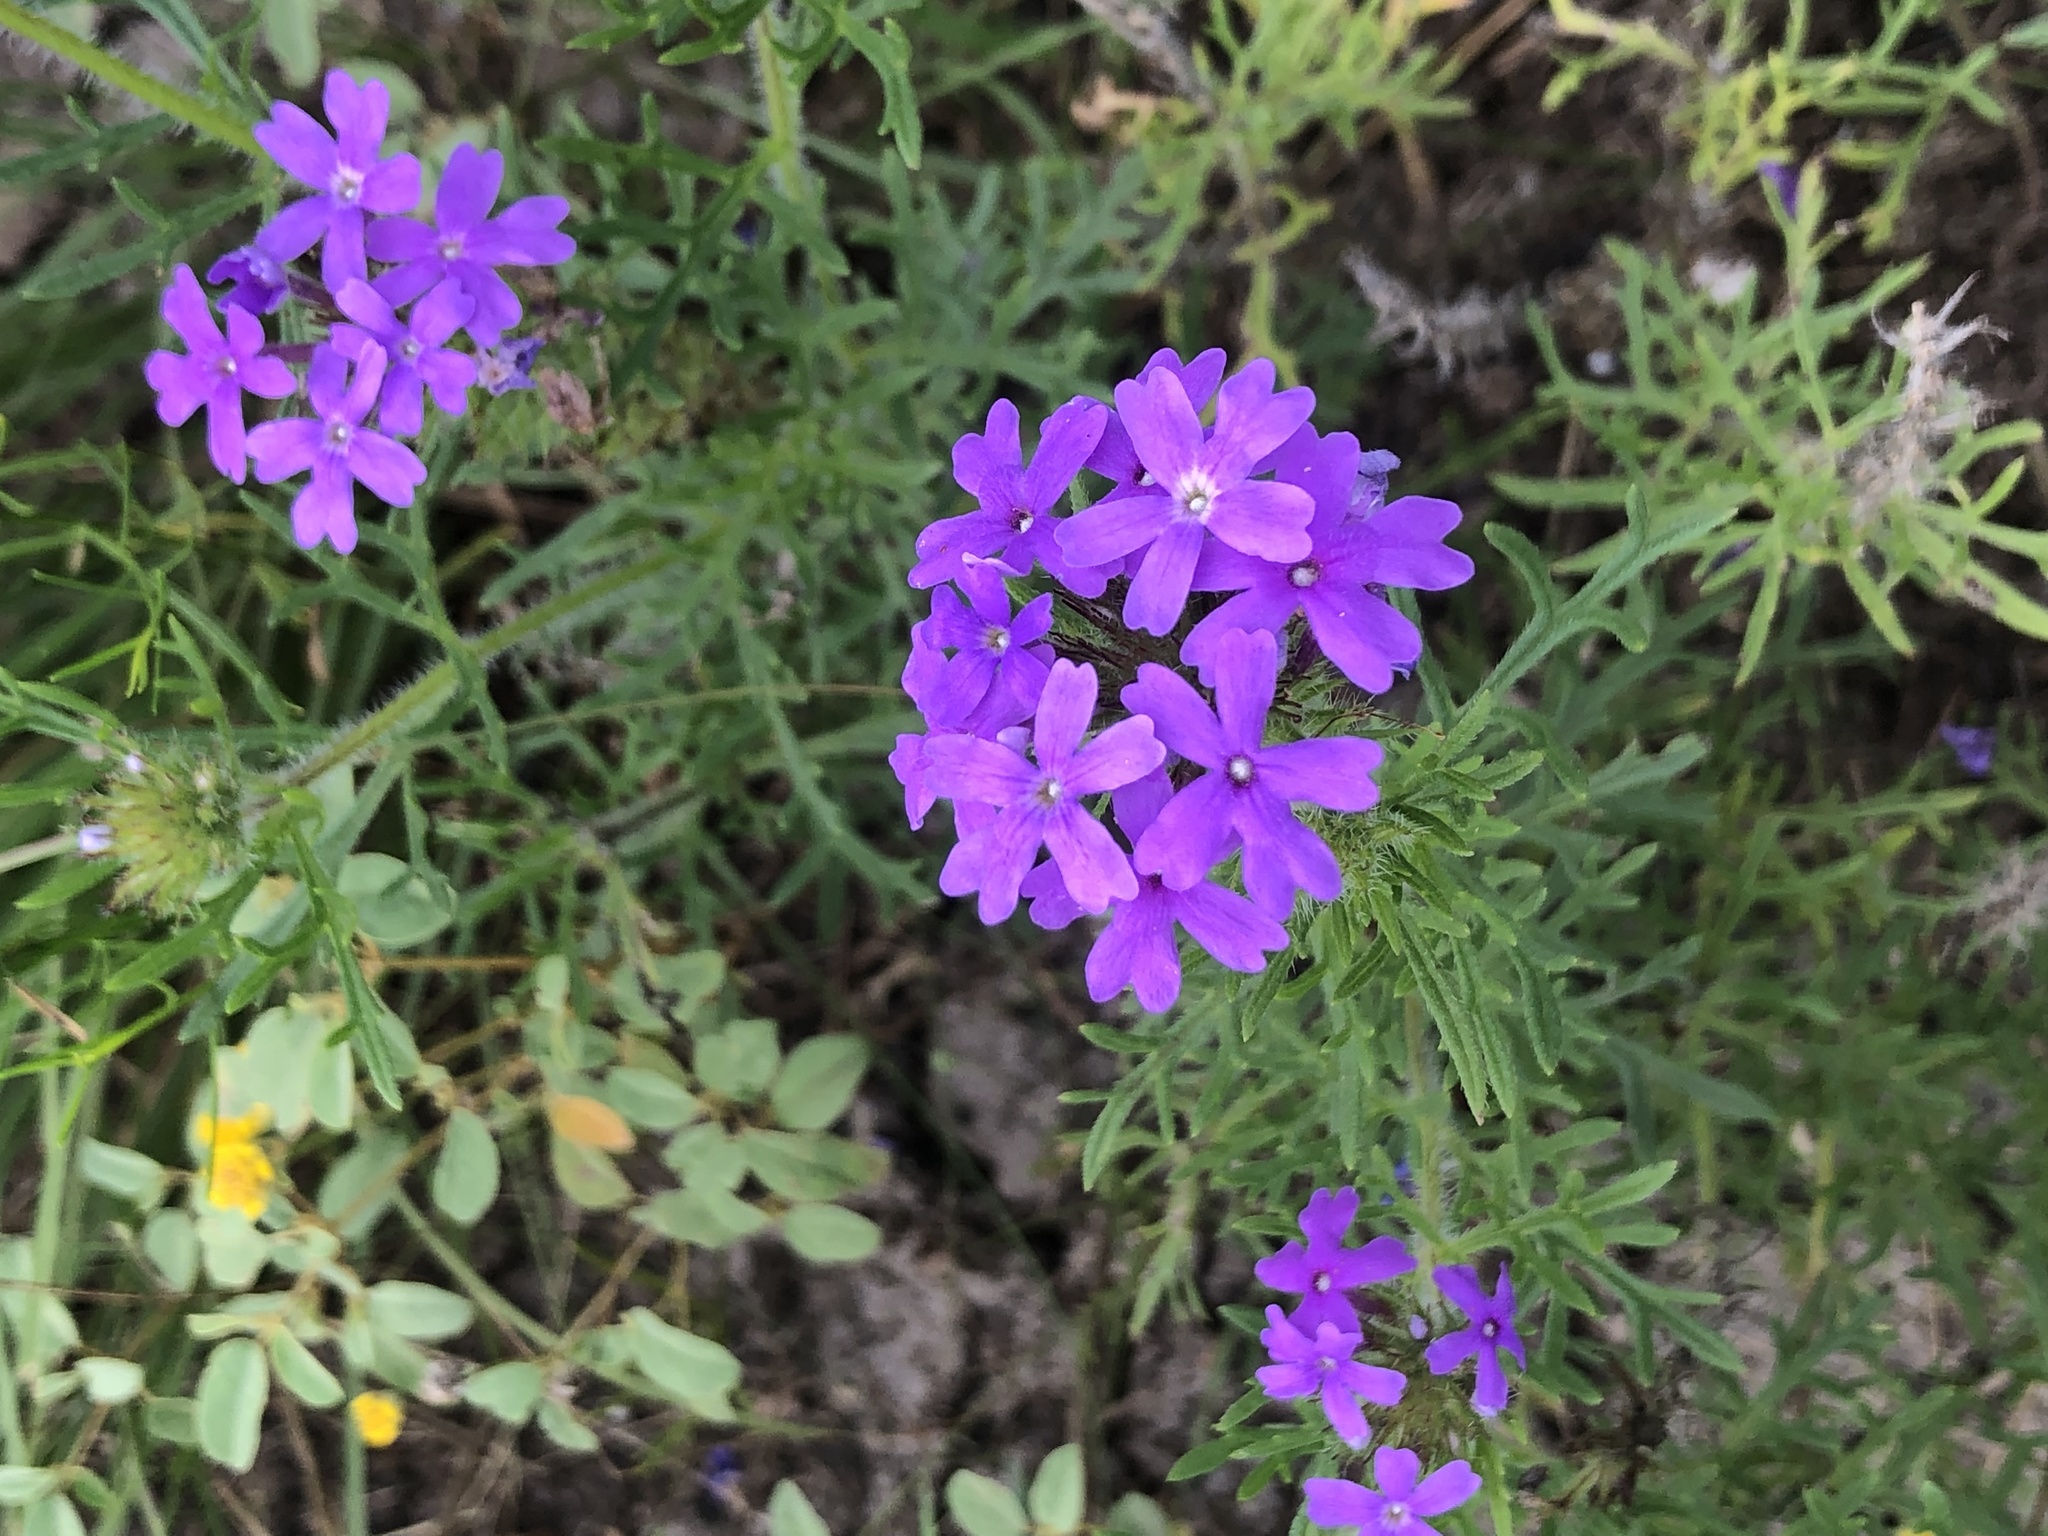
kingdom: Plantae
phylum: Tracheophyta
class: Magnoliopsida
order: Lamiales
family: Verbenaceae
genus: Verbena
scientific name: Verbena bipinnatifida
